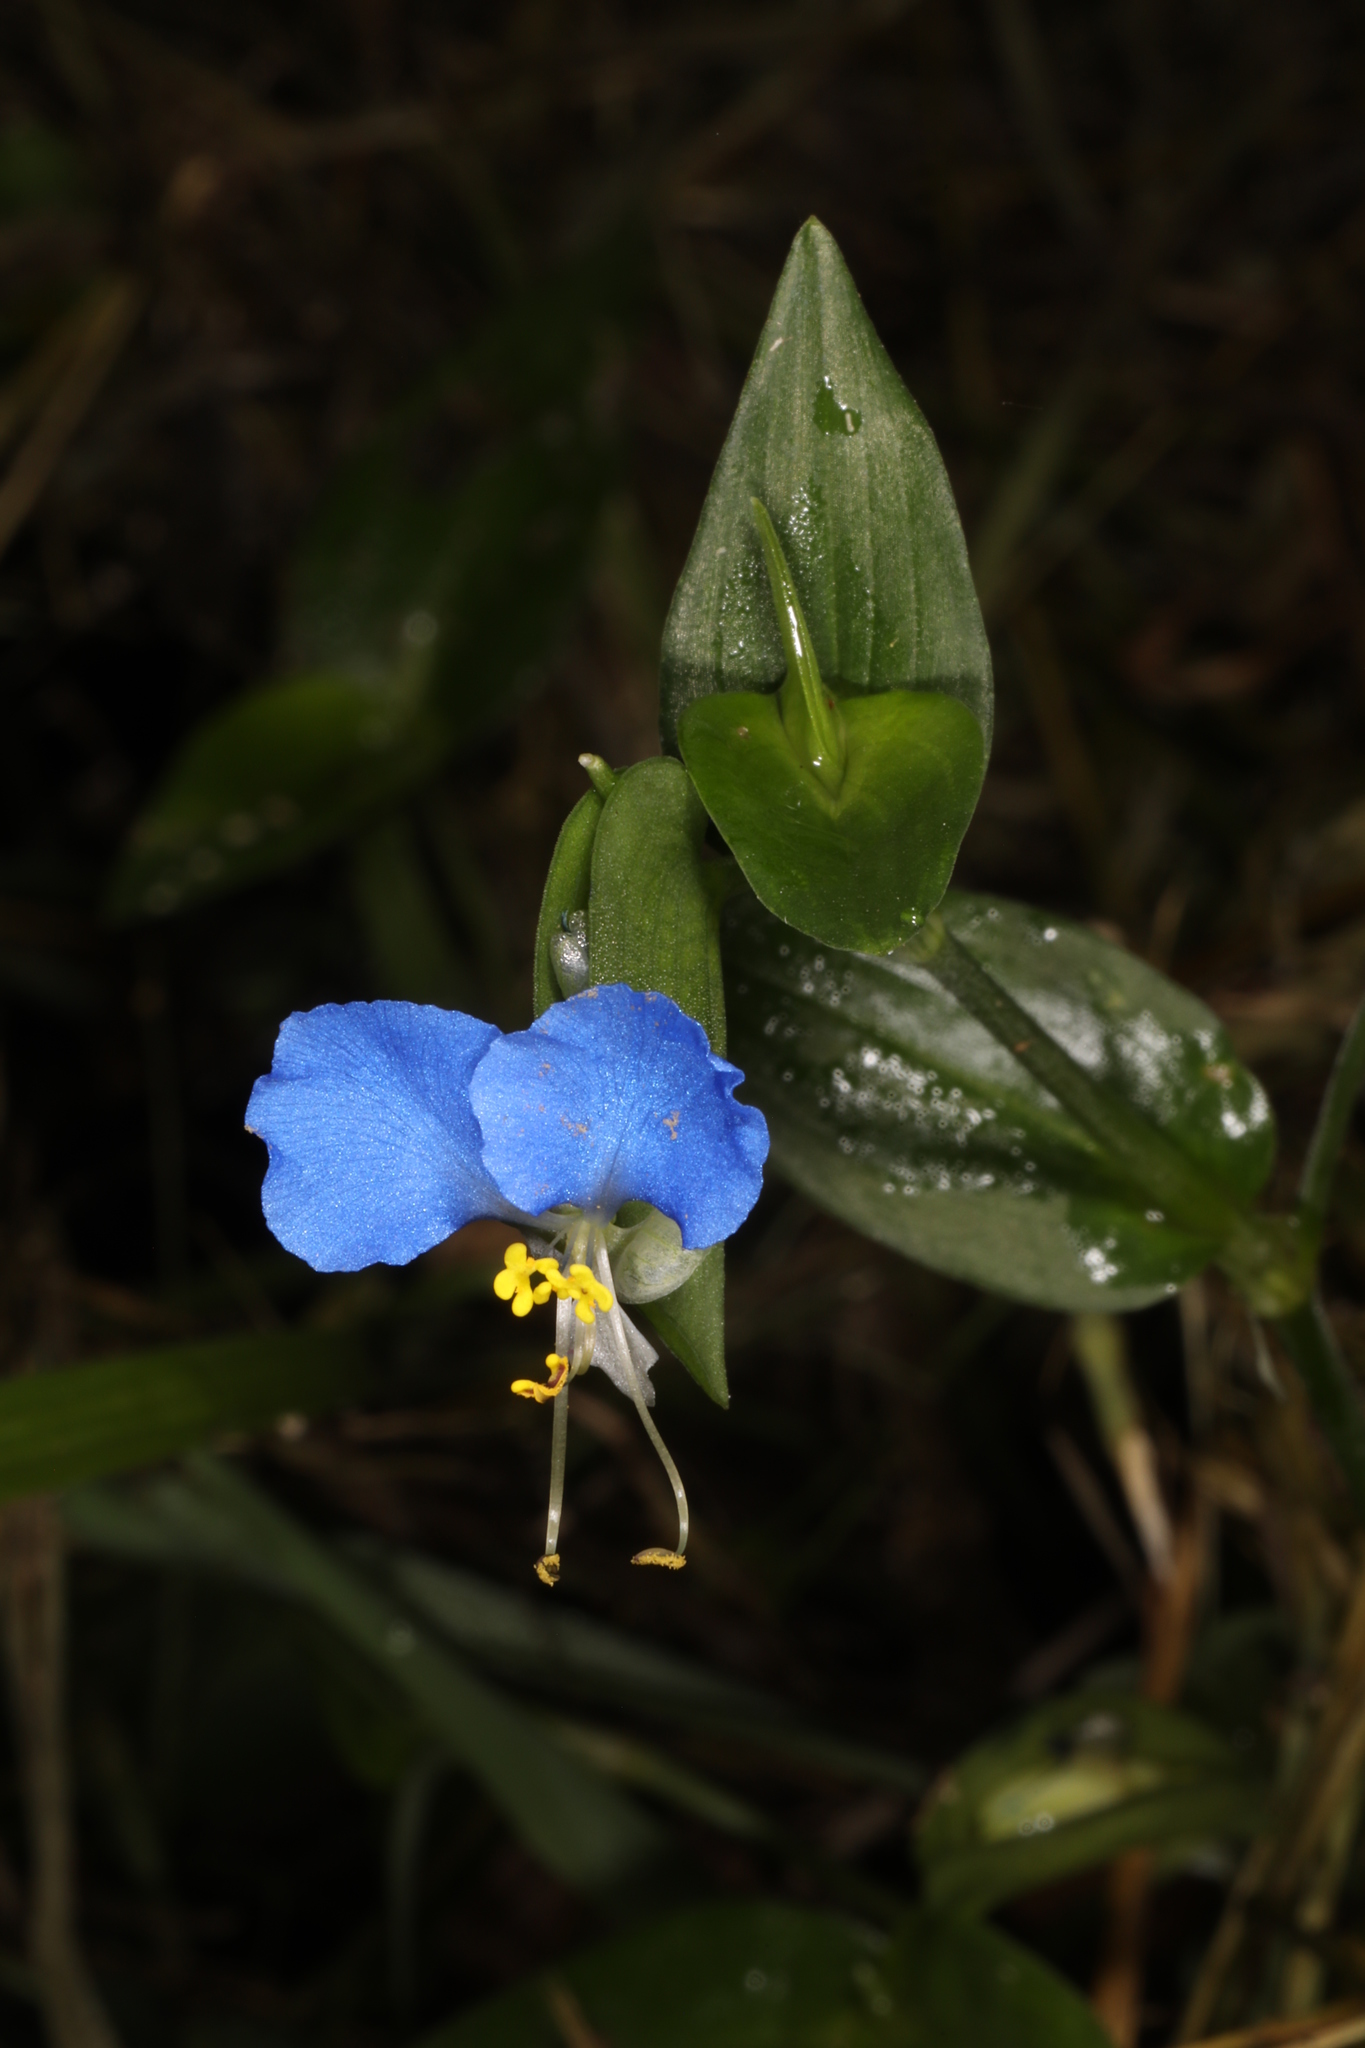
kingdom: Plantae
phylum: Tracheophyta
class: Liliopsida
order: Commelinales
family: Commelinaceae
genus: Commelina
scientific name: Commelina communis
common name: Asiatic dayflower
